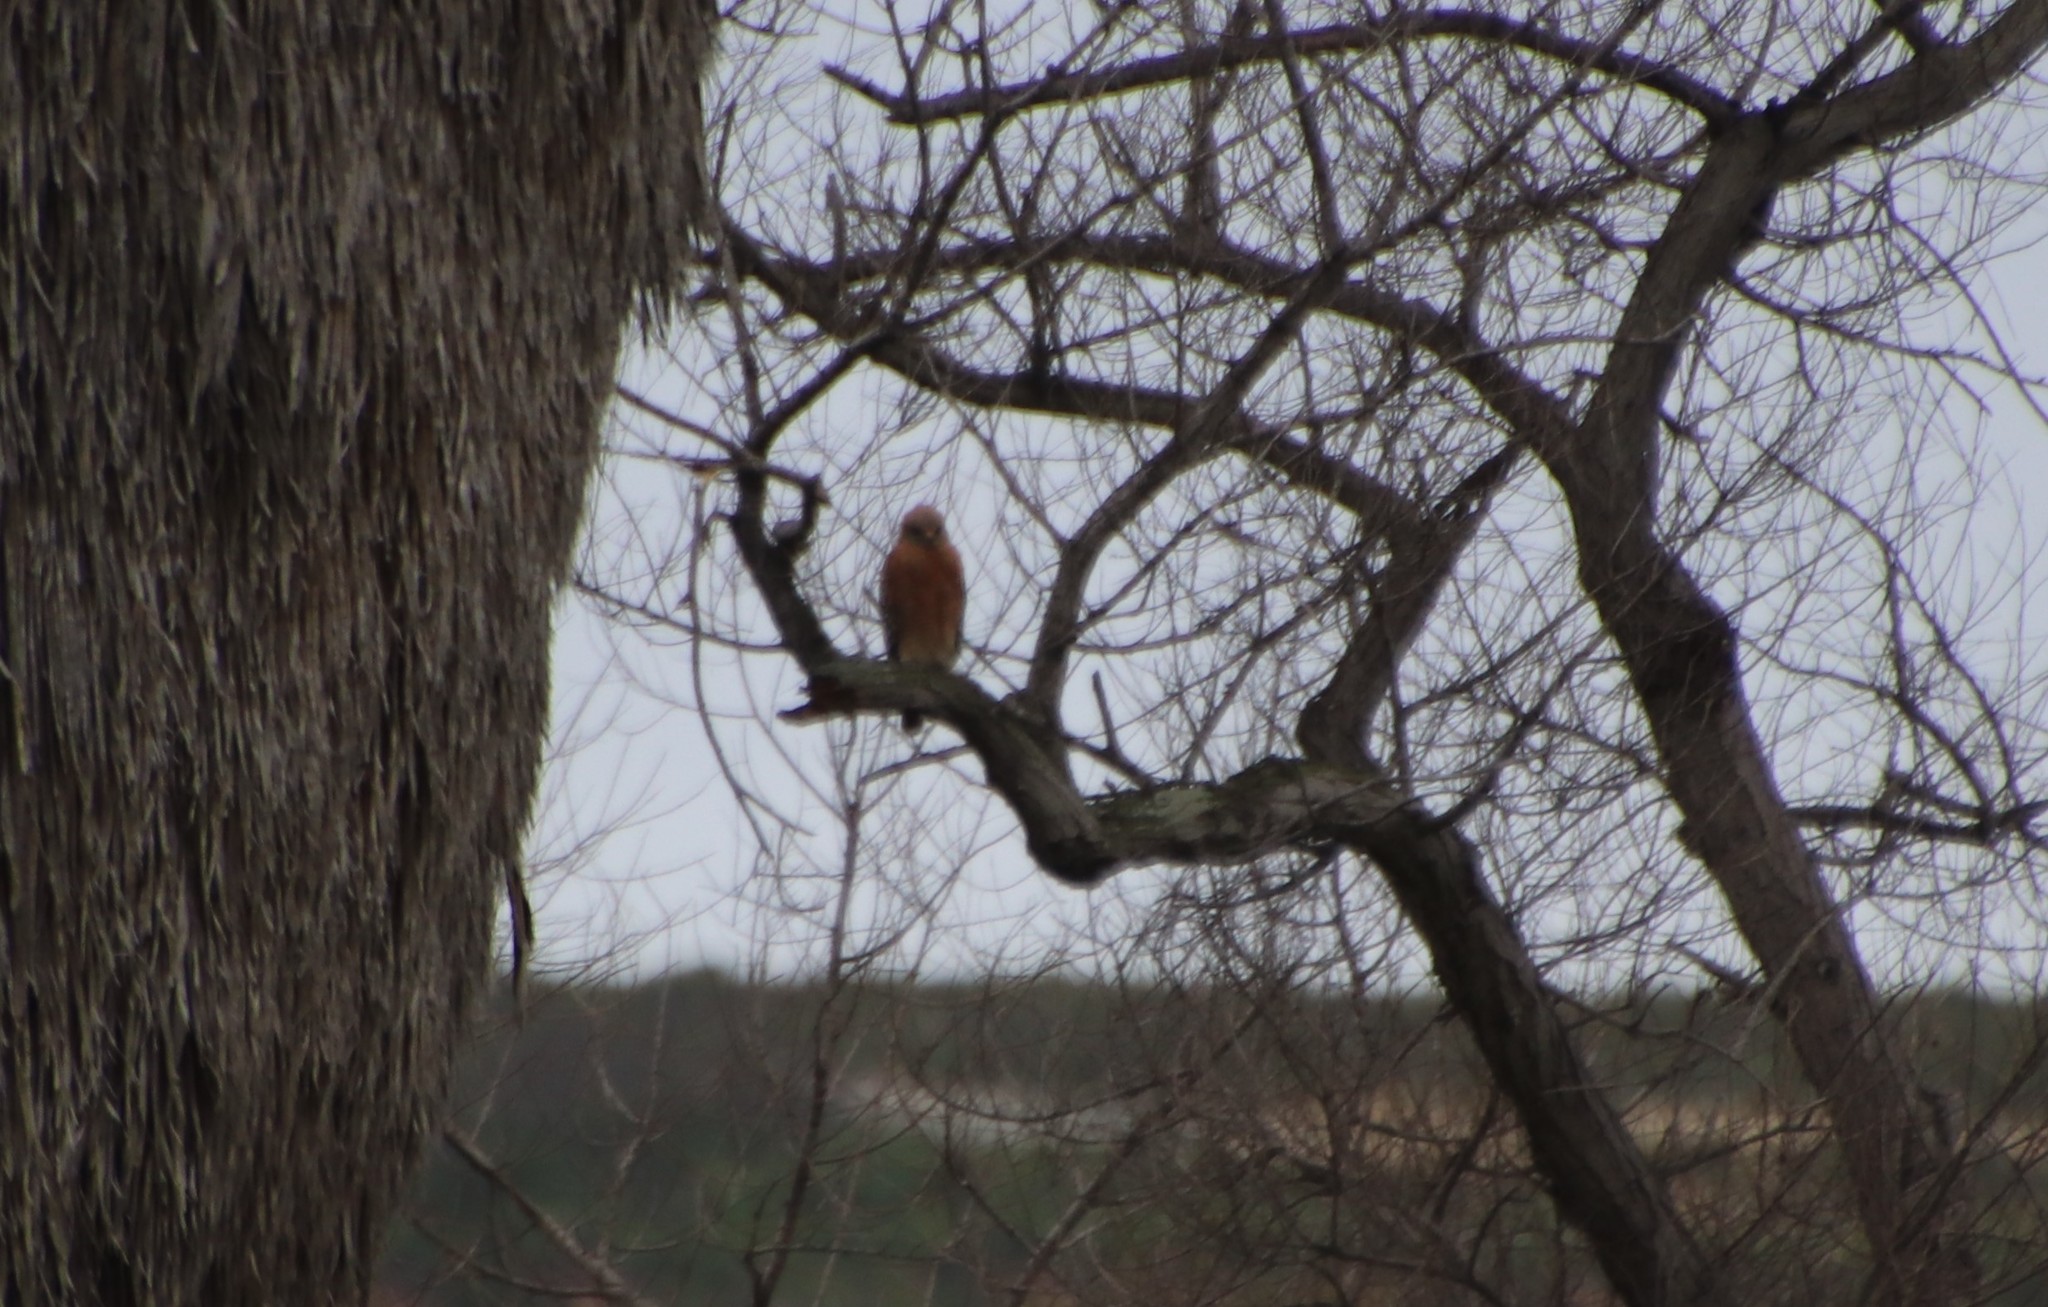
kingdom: Animalia
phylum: Chordata
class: Aves
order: Accipitriformes
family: Accipitridae
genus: Buteo
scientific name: Buteo lineatus
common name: Red-shouldered hawk
